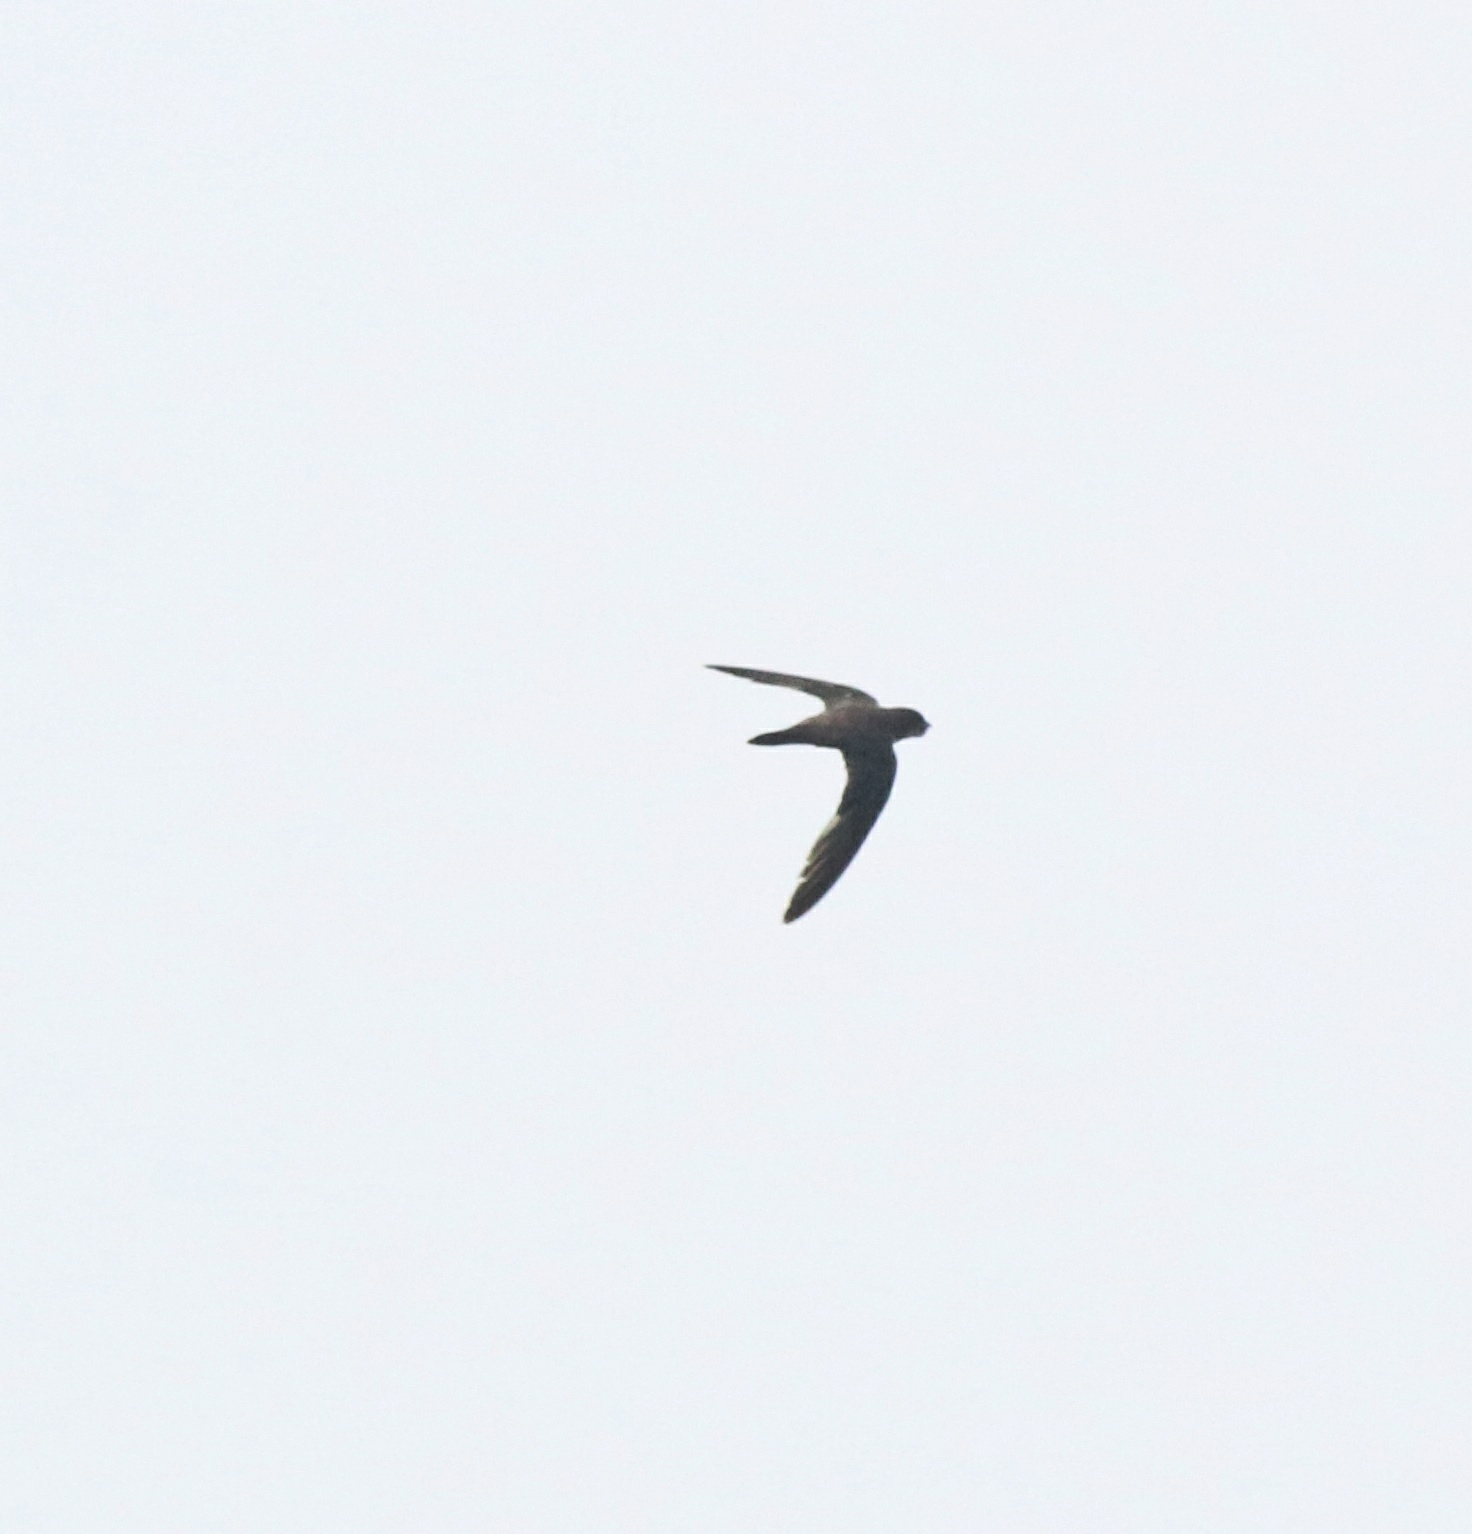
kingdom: Animalia
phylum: Chordata
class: Aves
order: Apodiformes
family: Apodidae
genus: Tachymarptis
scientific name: Tachymarptis melba
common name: Alpine swift
